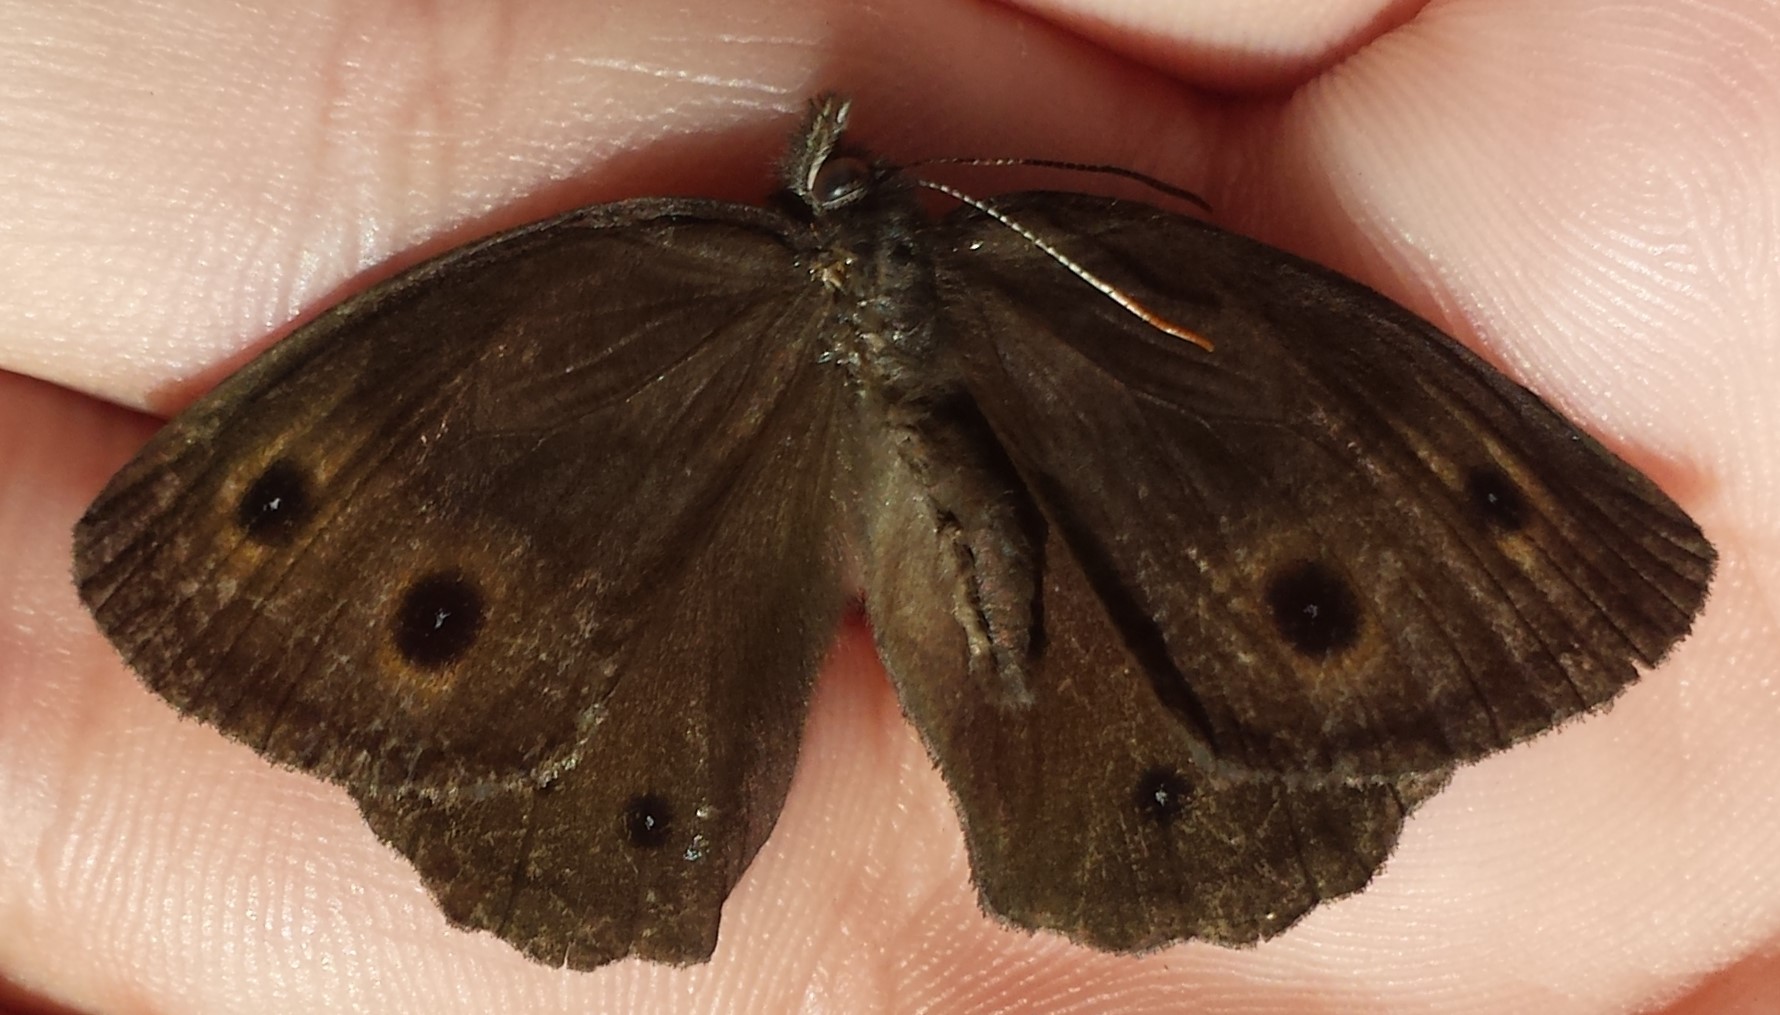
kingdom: Animalia
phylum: Arthropoda
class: Insecta
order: Lepidoptera
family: Nymphalidae
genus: Cercyonis
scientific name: Cercyonis pegala
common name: Common wood-nymph
